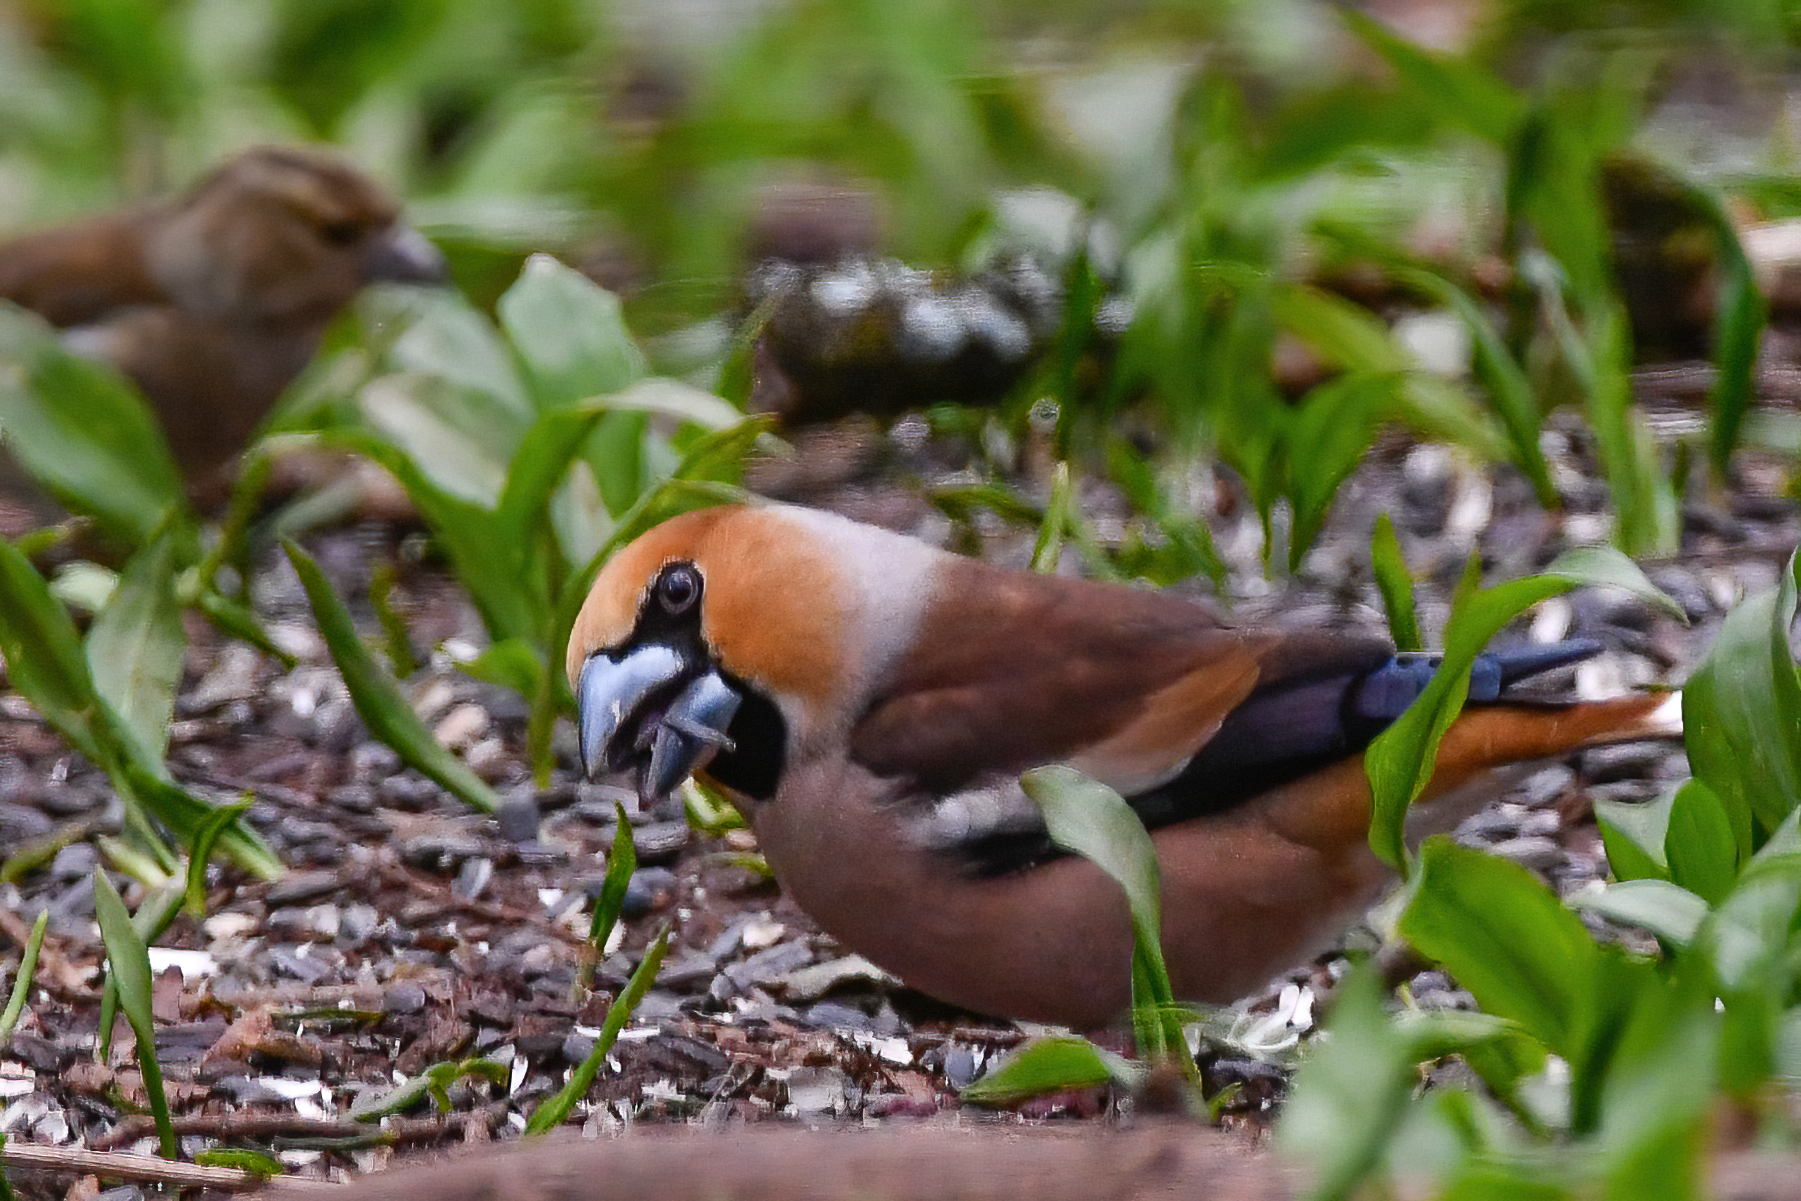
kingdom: Animalia
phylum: Chordata
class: Aves
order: Passeriformes
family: Fringillidae
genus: Coccothraustes
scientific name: Coccothraustes coccothraustes
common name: Hawfinch
